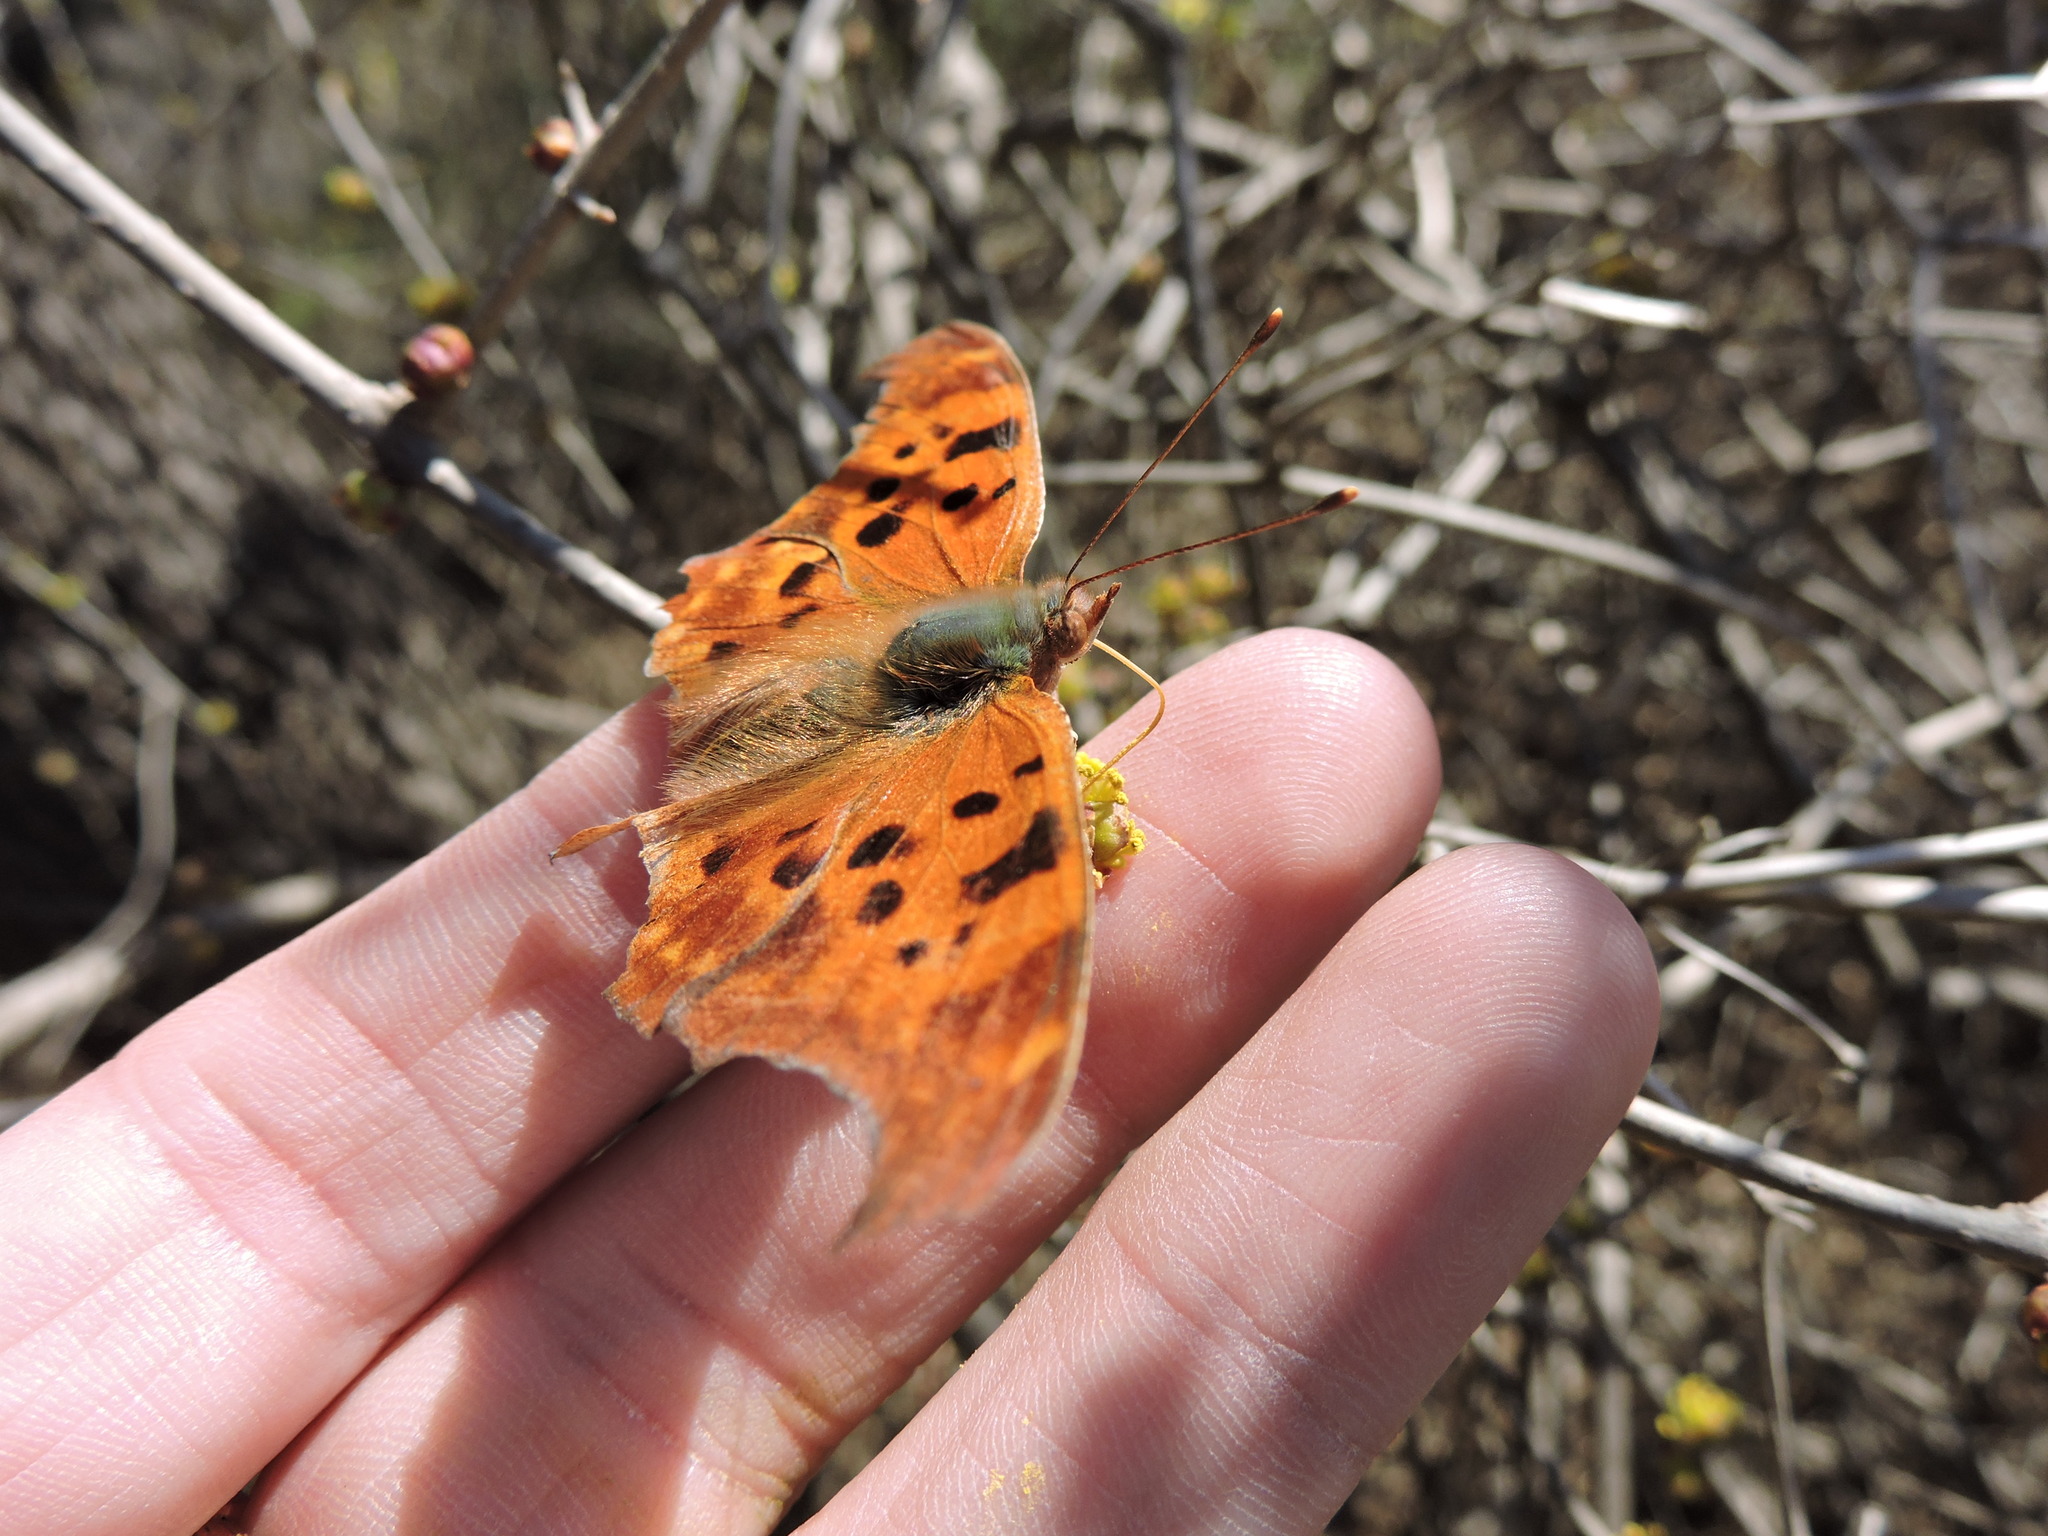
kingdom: Animalia
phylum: Arthropoda
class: Insecta
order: Lepidoptera
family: Nymphalidae
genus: Polygonia
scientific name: Polygonia interrogationis
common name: Question mark
